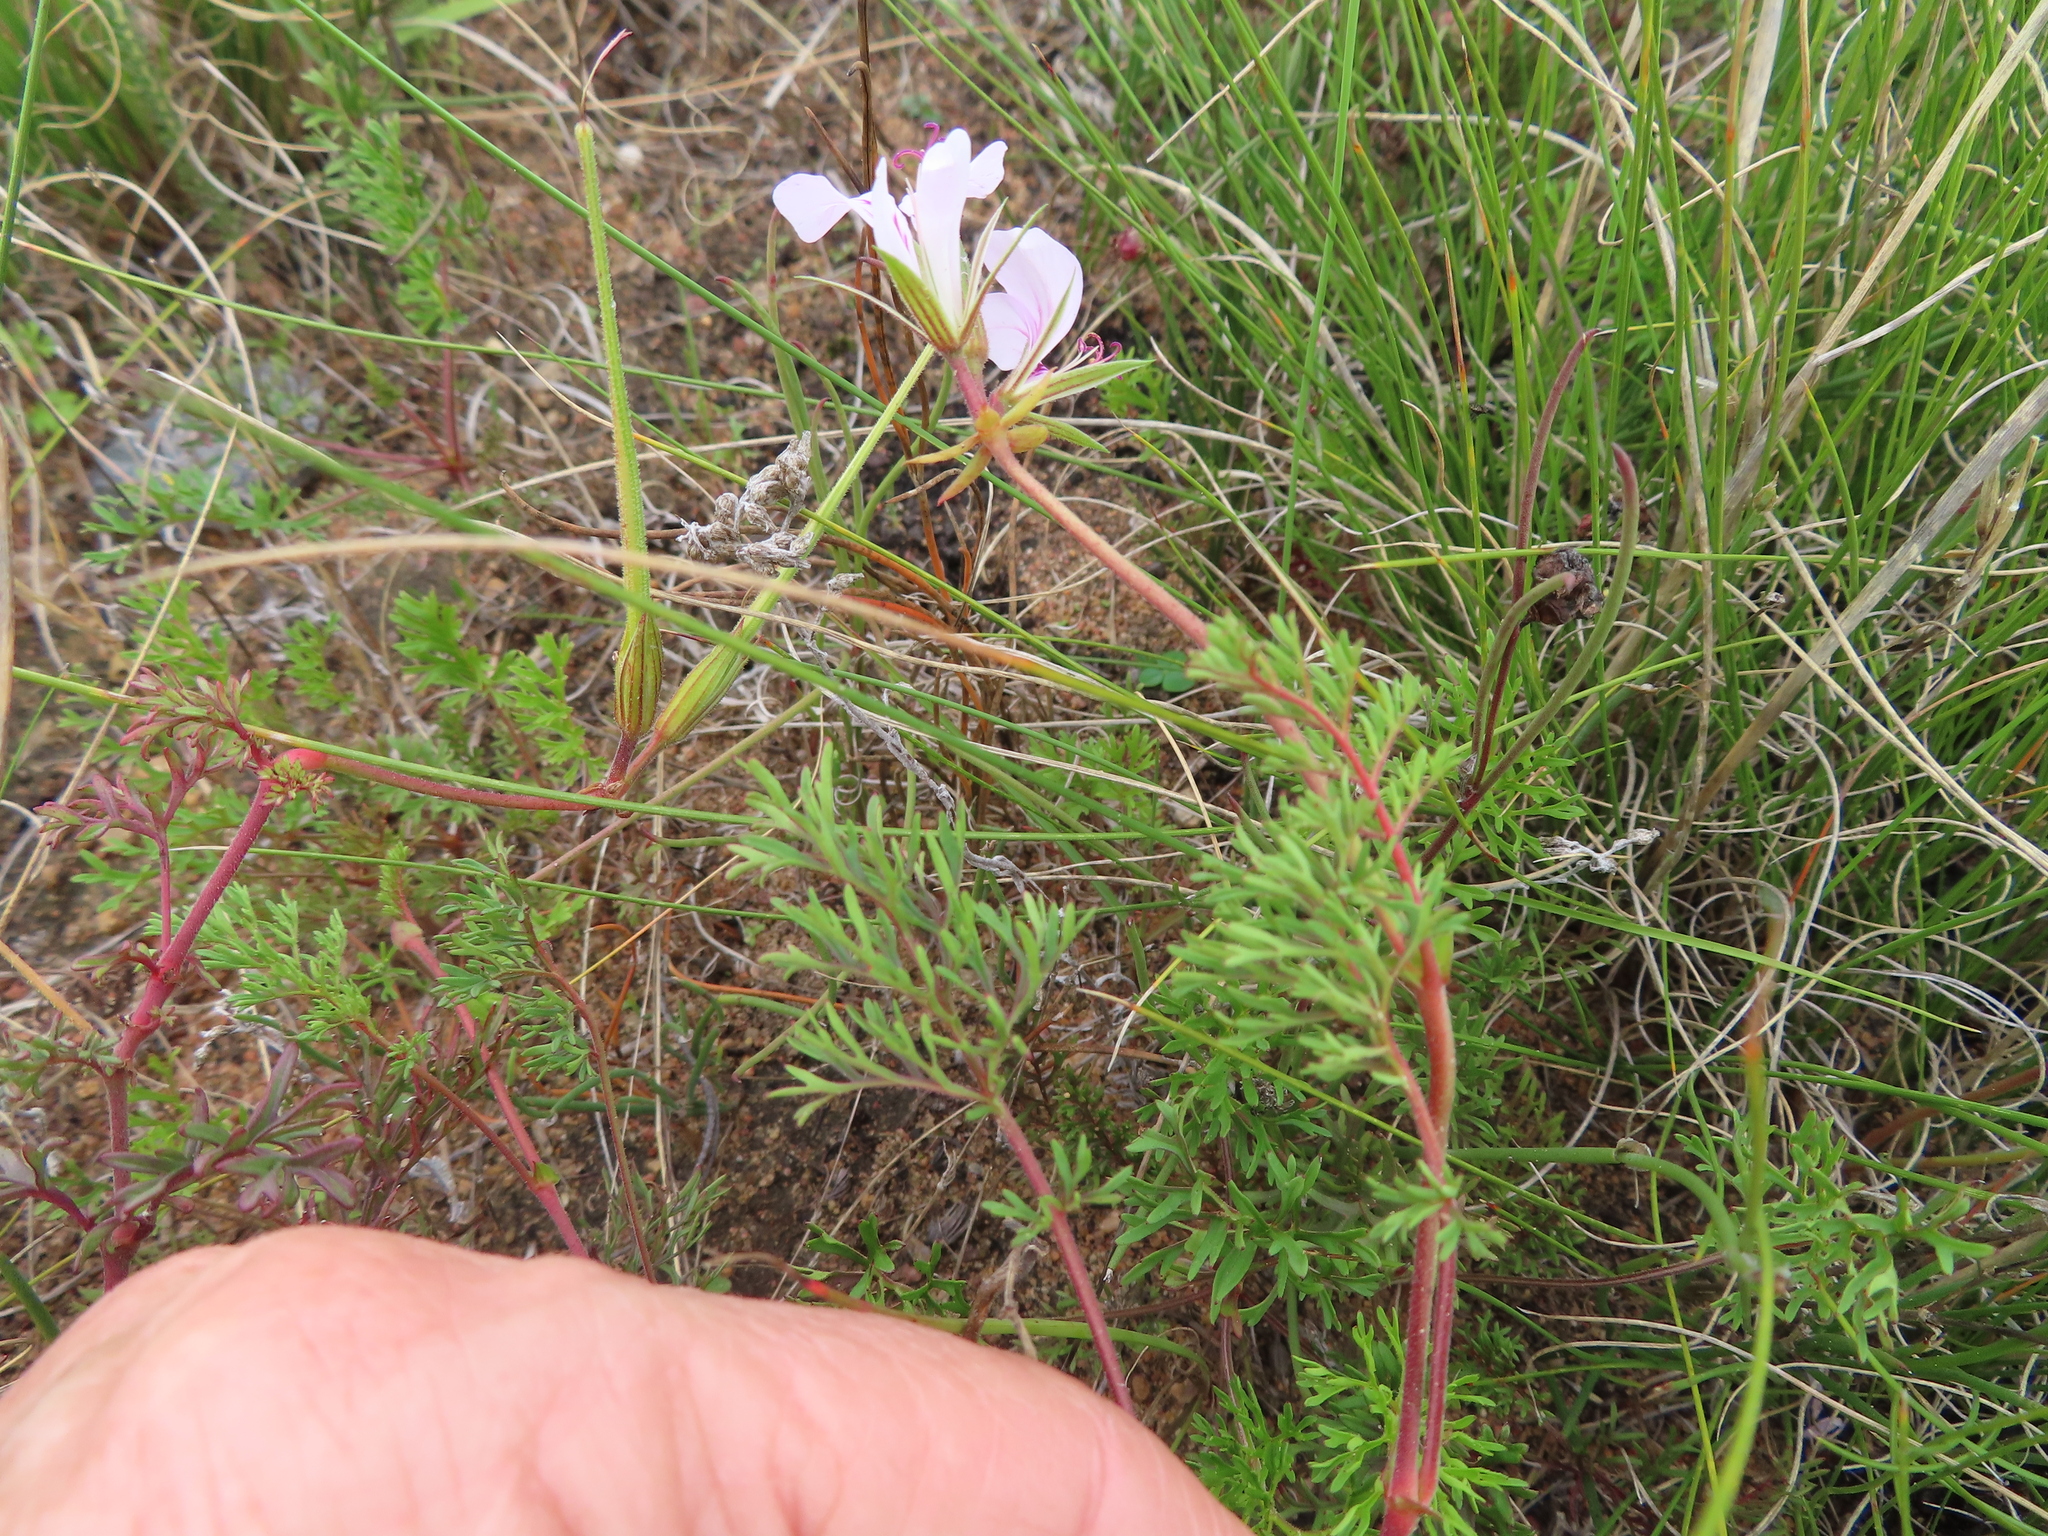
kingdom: Plantae
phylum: Tracheophyta
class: Magnoliopsida
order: Geraniales
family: Geraniaceae
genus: Pelargonium
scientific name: Pelargonium myrrhifolium
